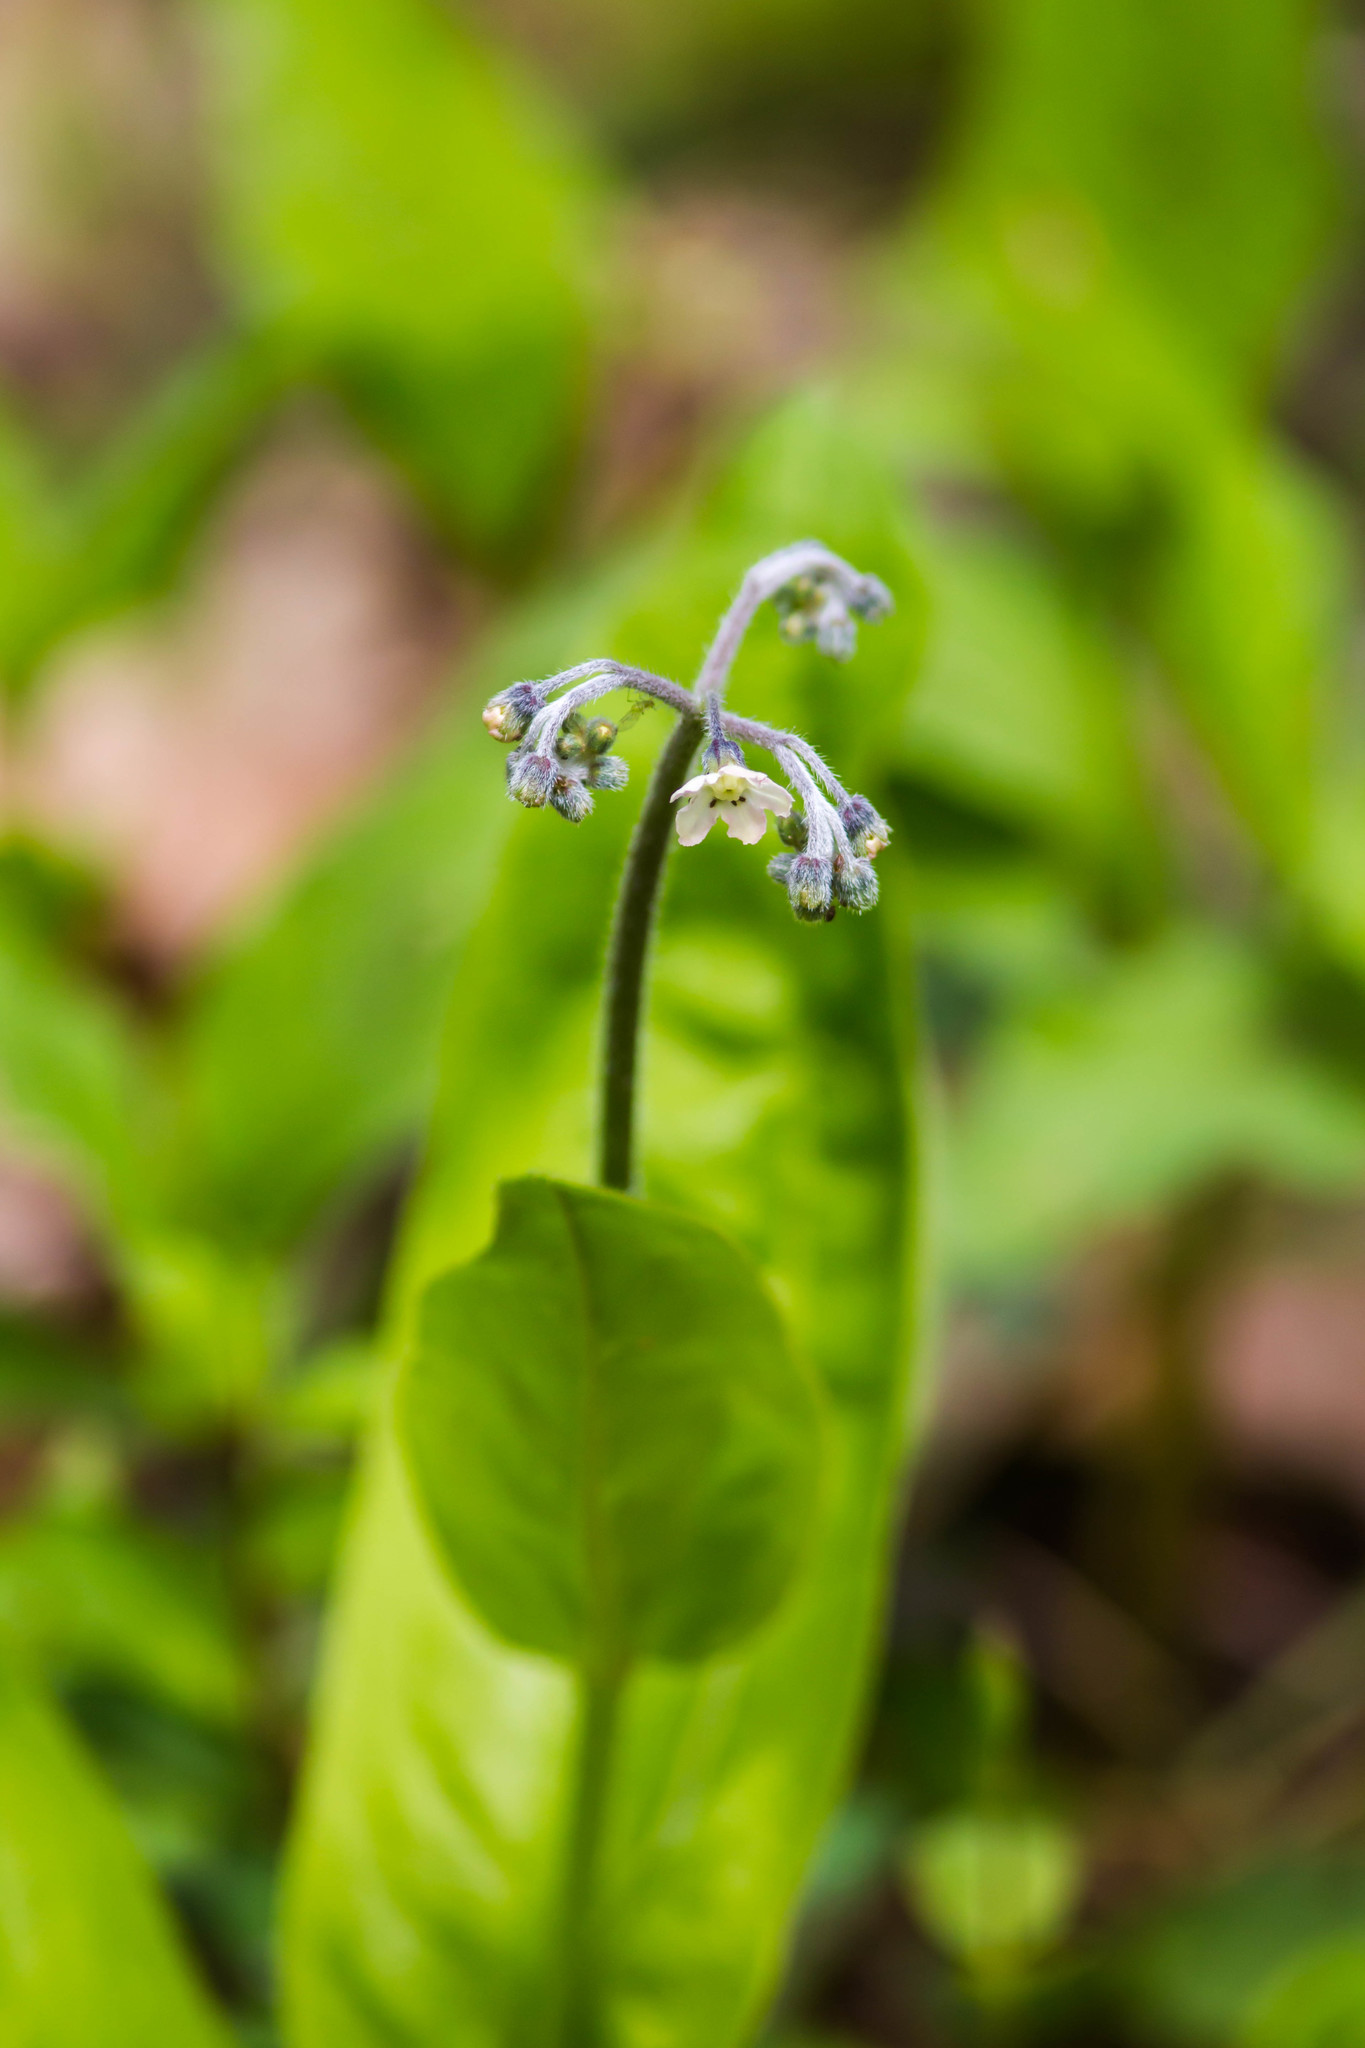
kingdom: Plantae
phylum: Tracheophyta
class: Magnoliopsida
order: Boraginales
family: Boraginaceae
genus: Andersonglossum
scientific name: Andersonglossum virginianum
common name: Wild comfrey
